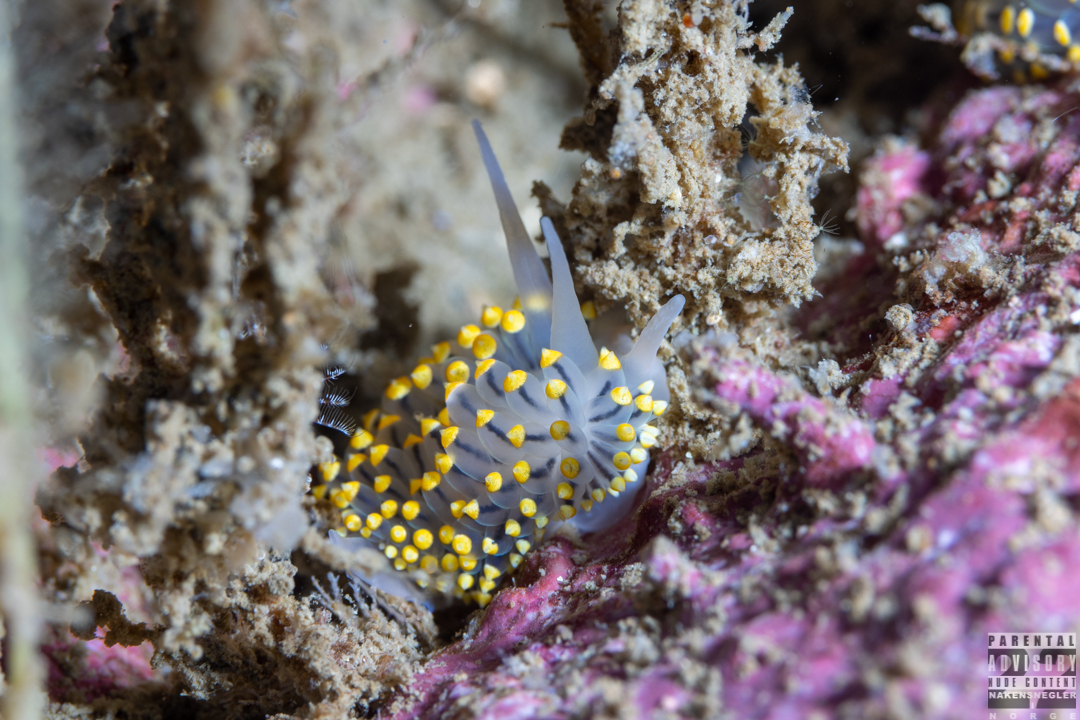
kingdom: Animalia
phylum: Mollusca
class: Gastropoda
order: Nudibranchia
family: Eubranchidae
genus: Eubranchus
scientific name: Eubranchus tricolor
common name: Painted balloon aeolis
